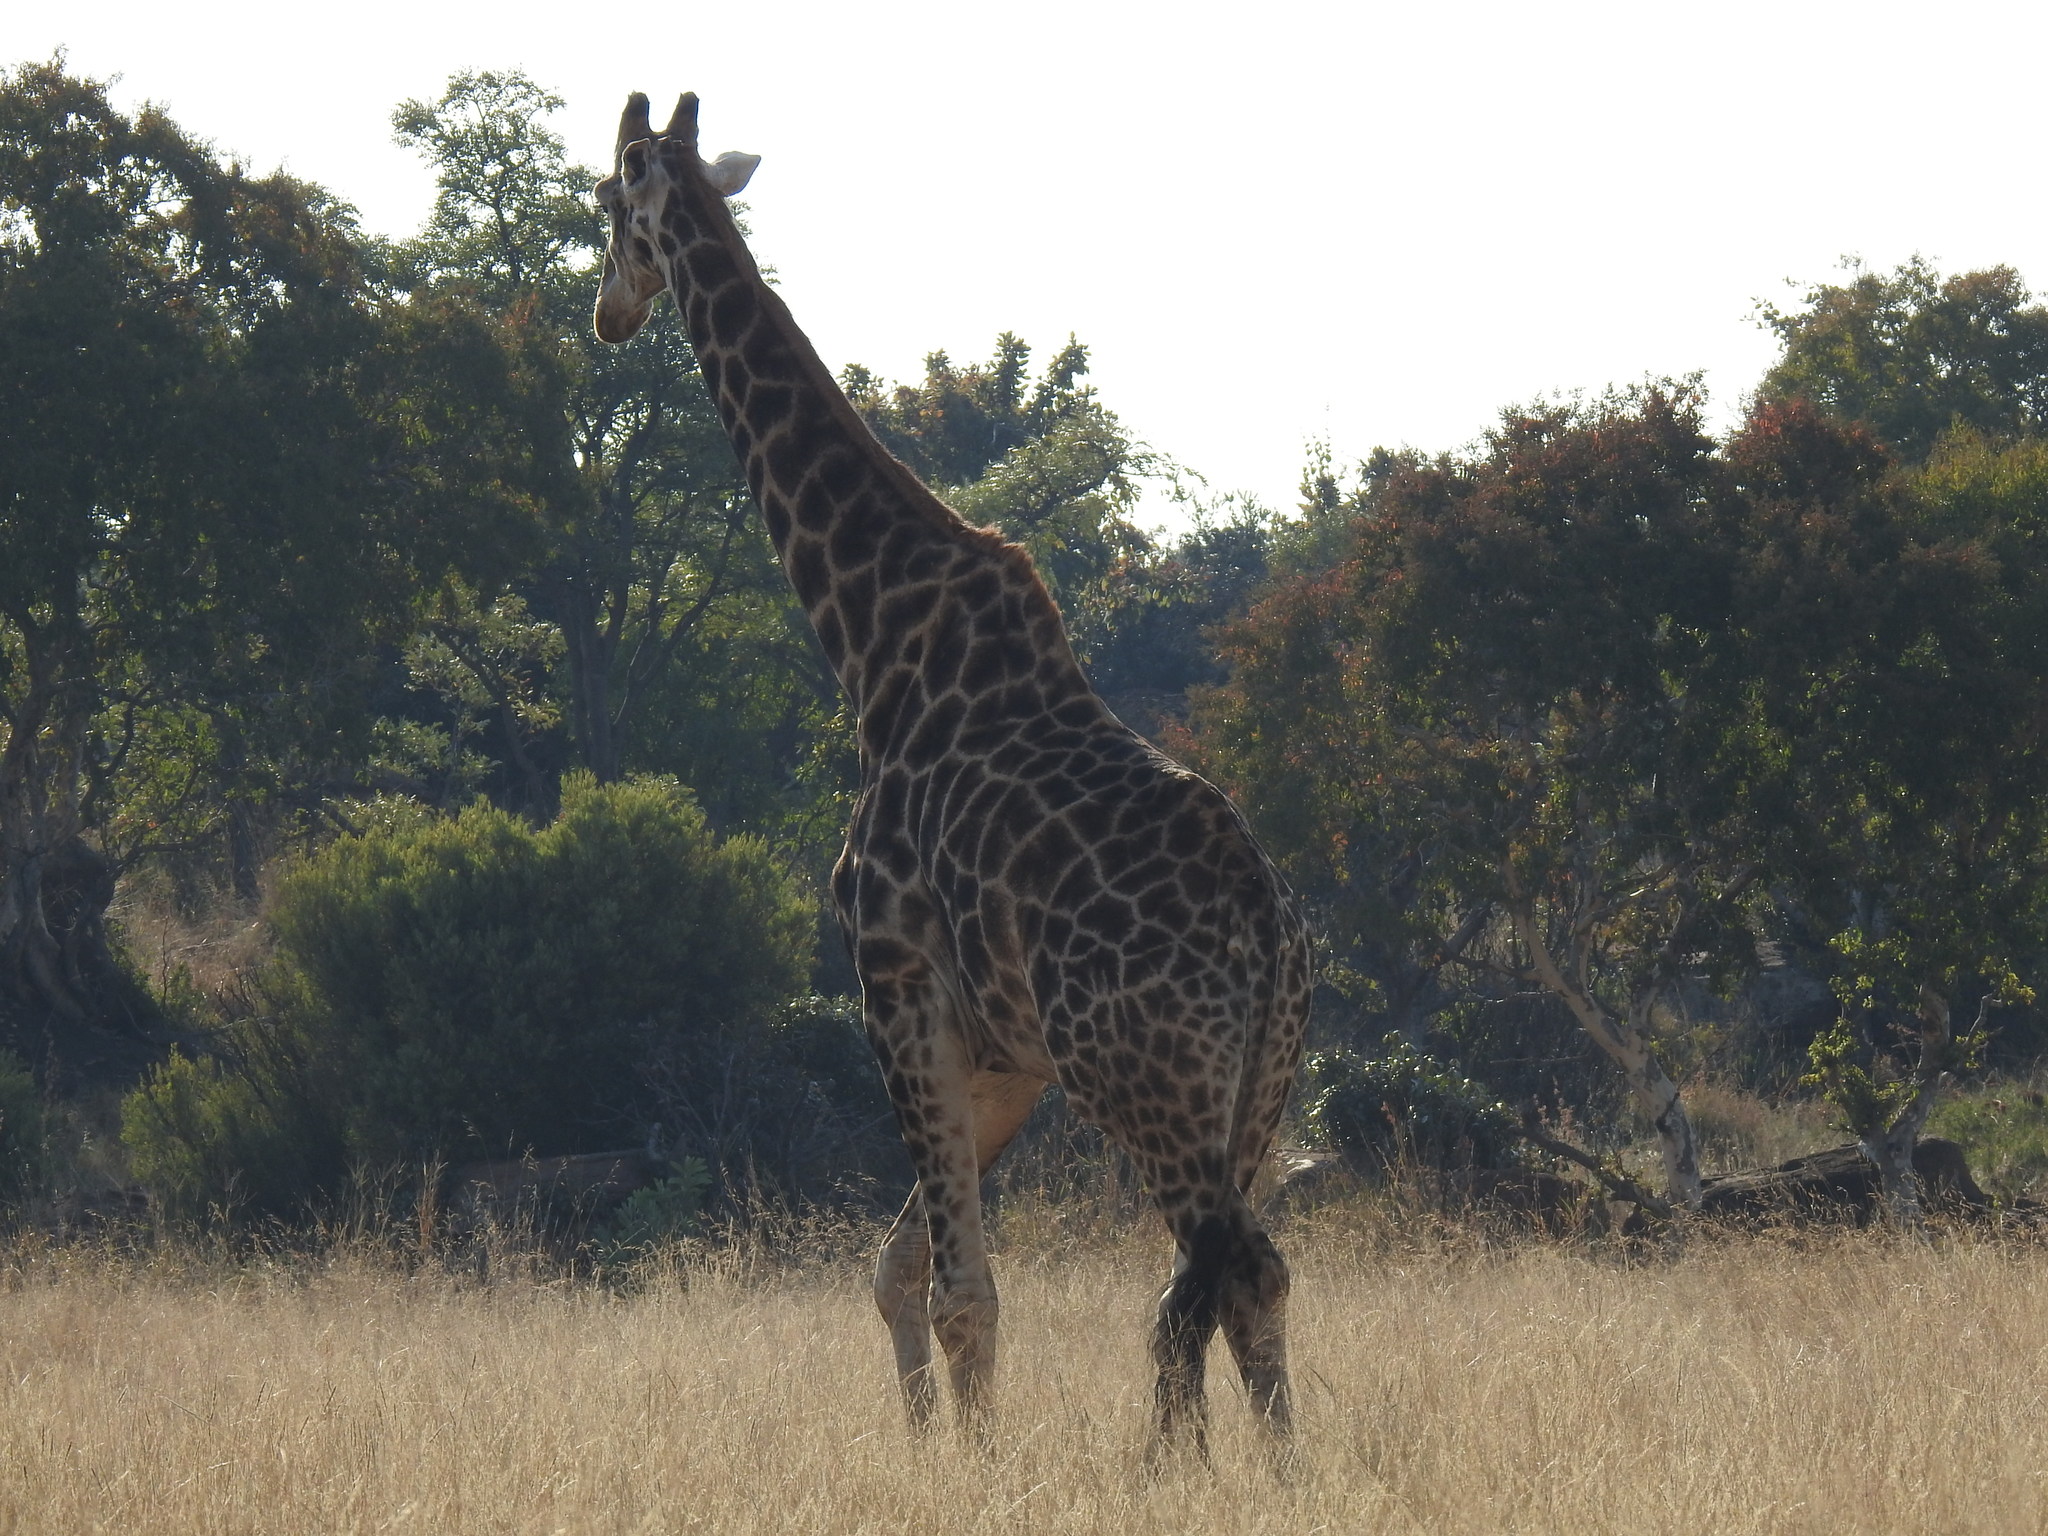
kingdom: Animalia
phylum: Chordata
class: Mammalia
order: Artiodactyla
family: Giraffidae
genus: Giraffa
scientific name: Giraffa giraffa
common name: Southern giraffe
